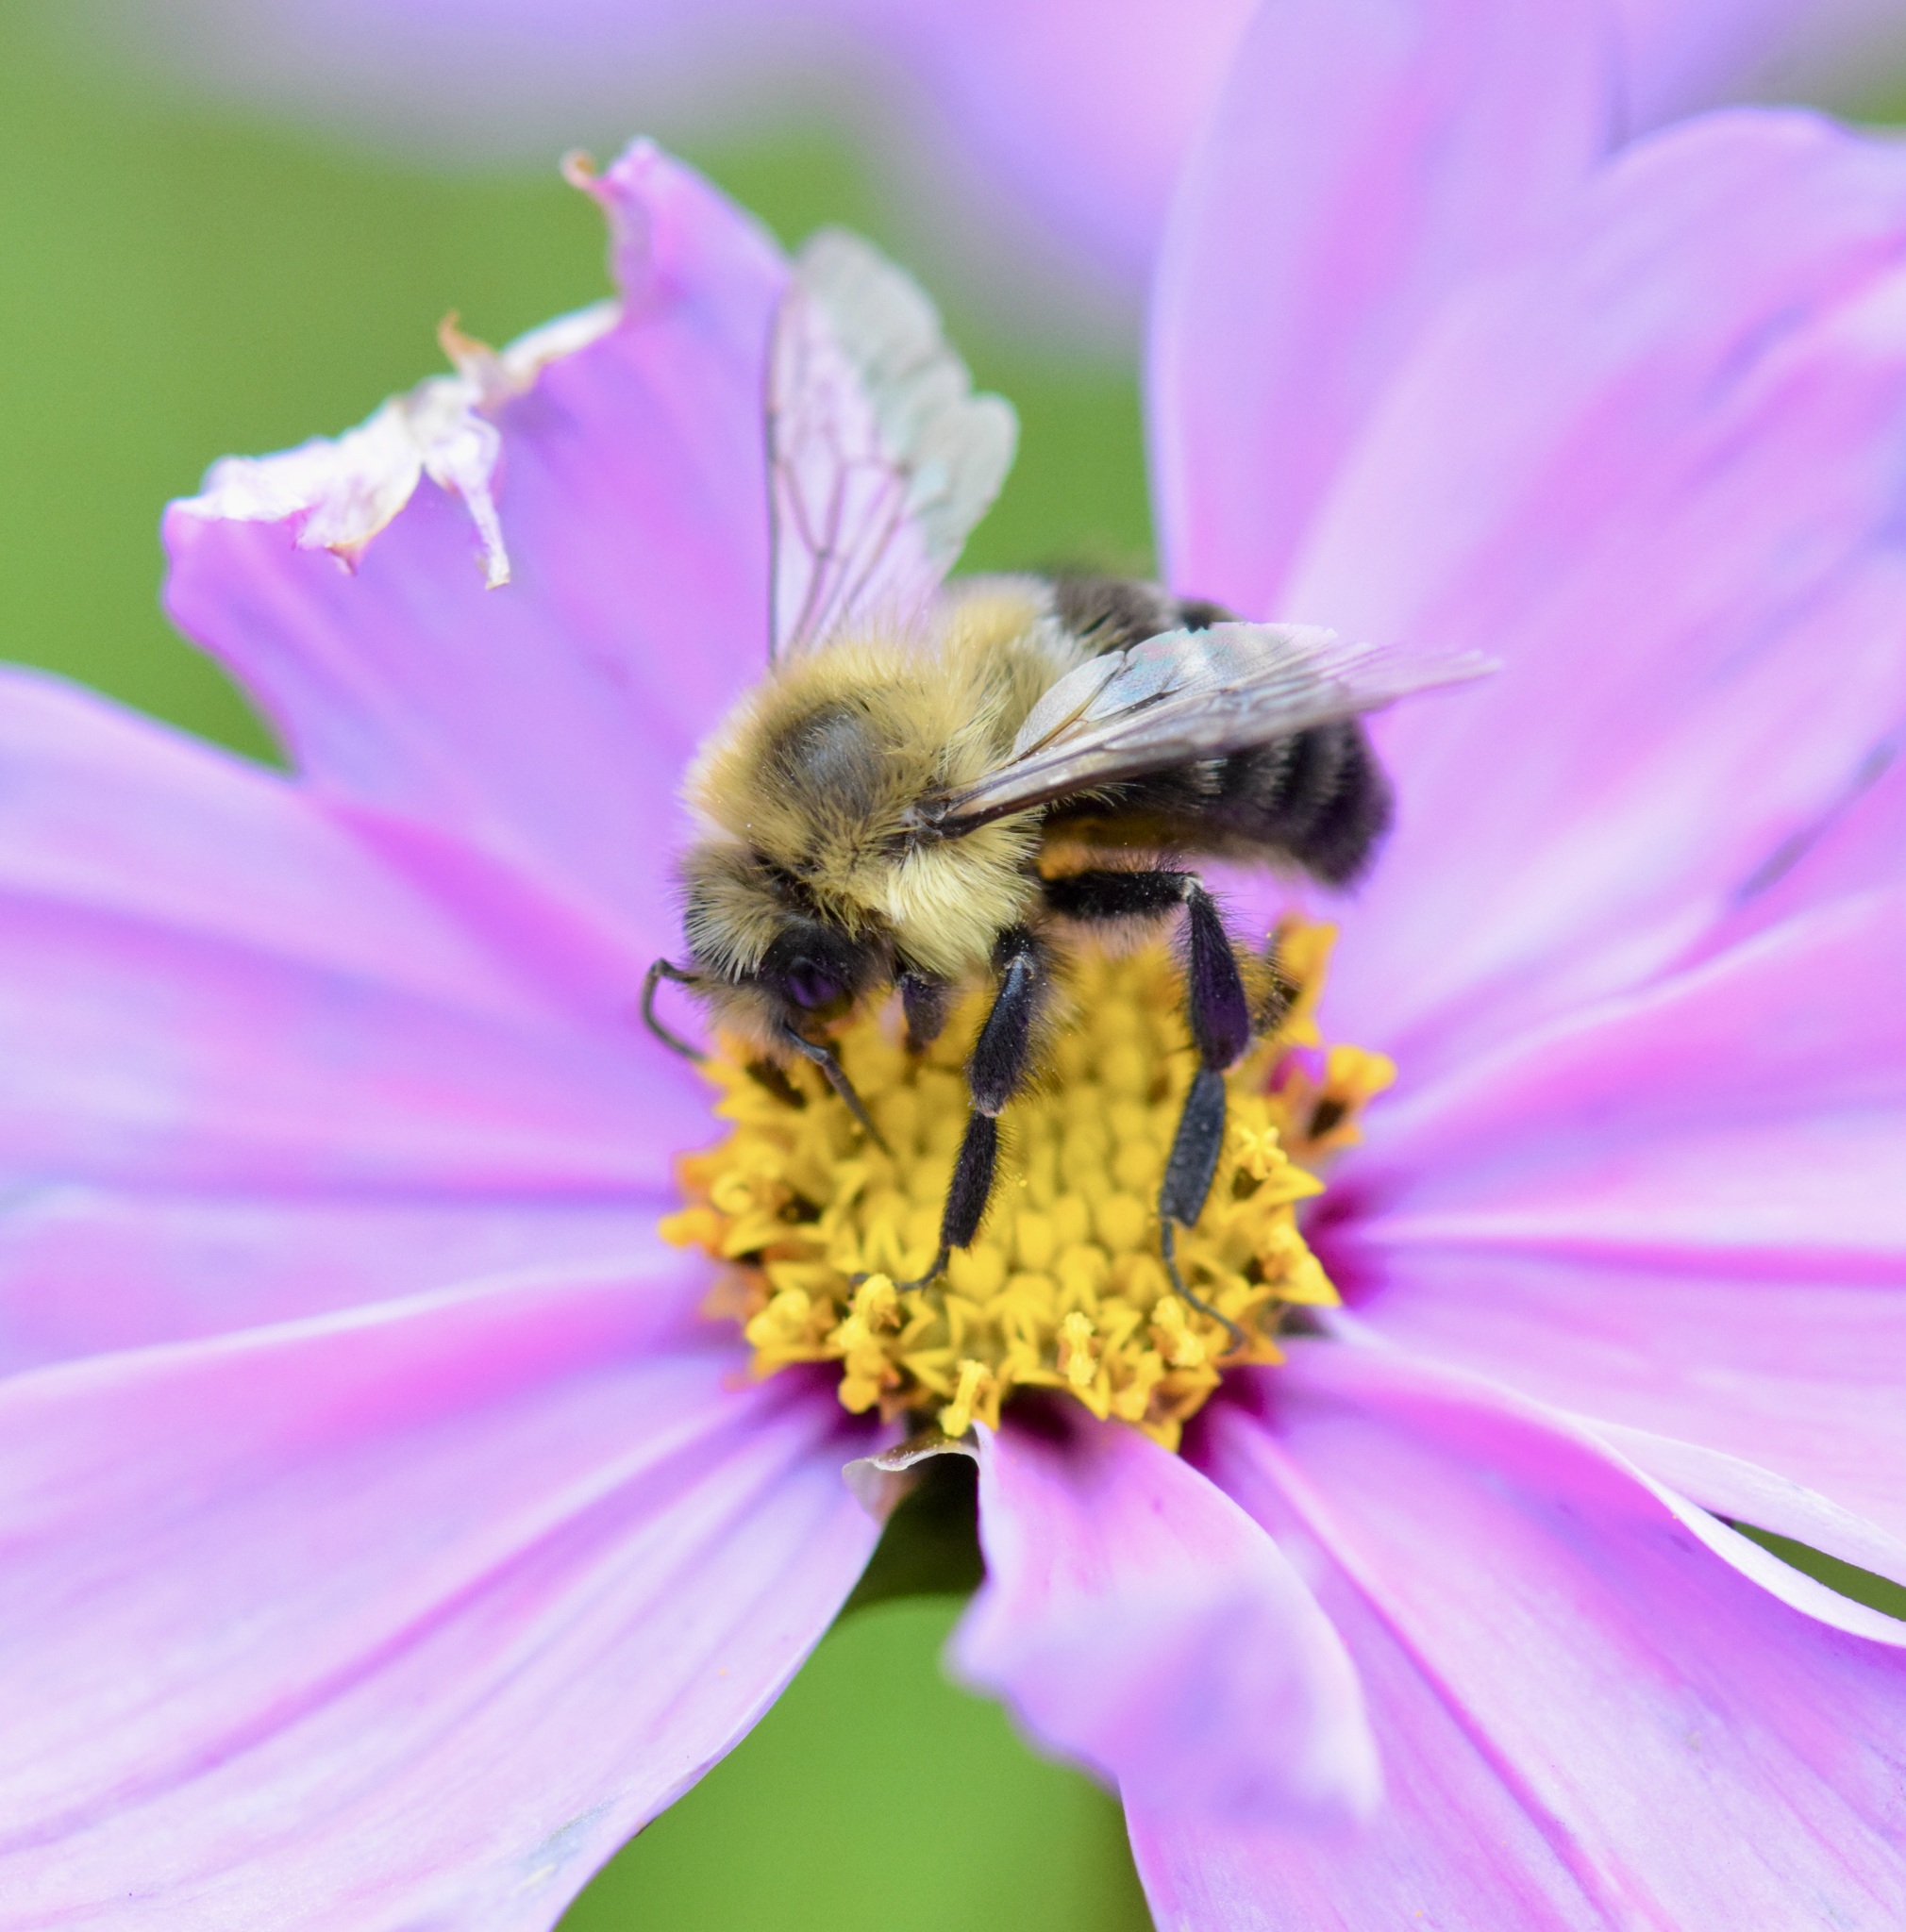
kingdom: Animalia
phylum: Arthropoda
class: Insecta
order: Hymenoptera
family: Apidae
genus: Bombus
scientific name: Bombus impatiens
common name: Common eastern bumble bee
